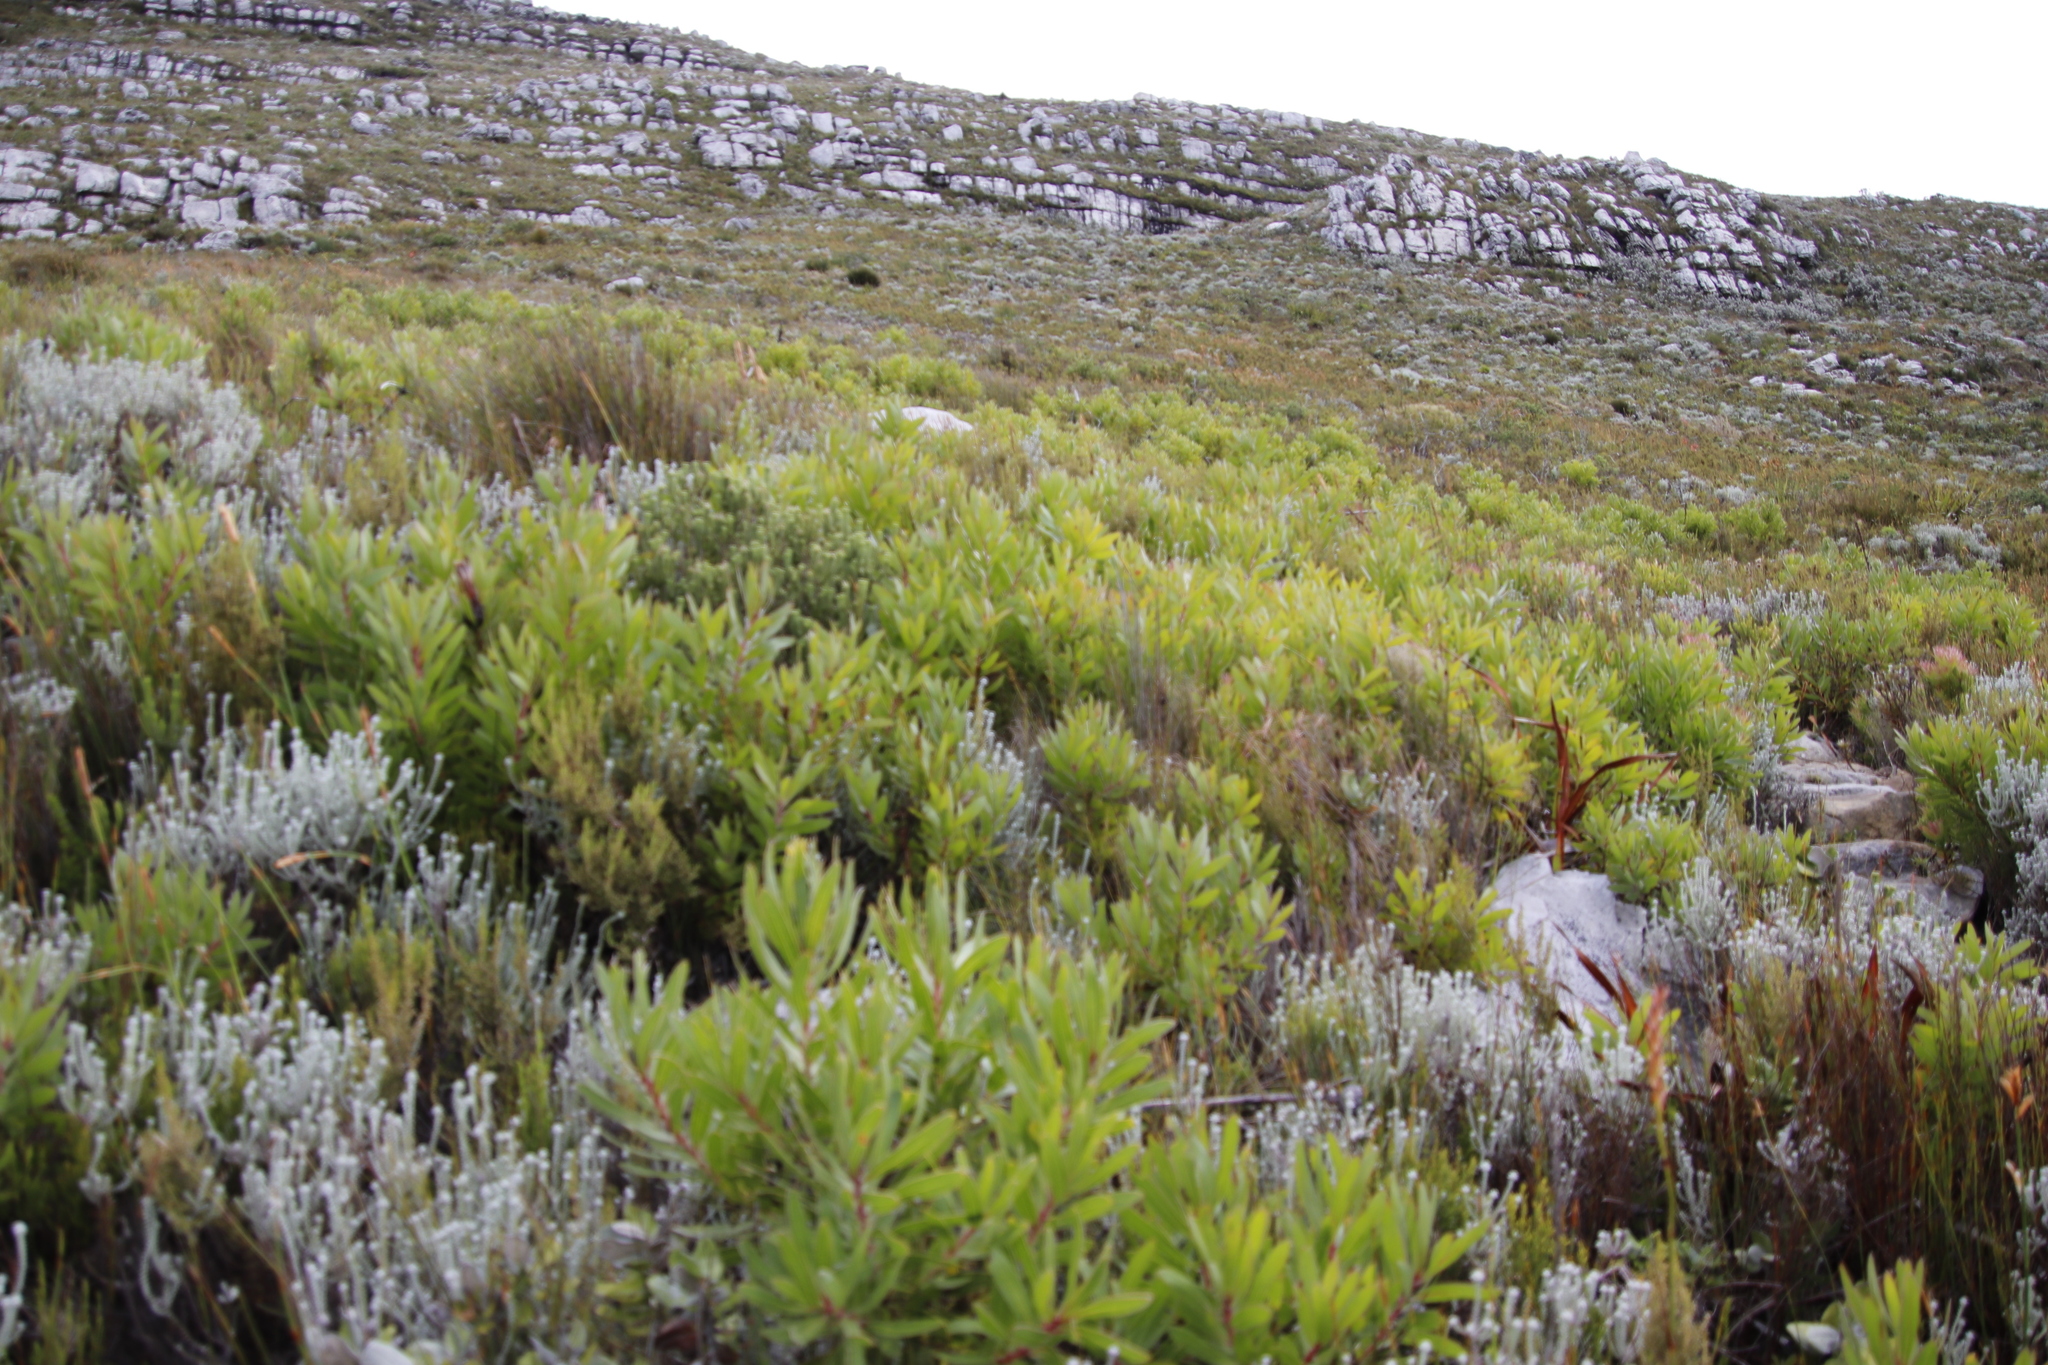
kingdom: Plantae
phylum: Tracheophyta
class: Magnoliopsida
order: Proteales
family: Proteaceae
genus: Protea
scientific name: Protea lepidocarpodendron
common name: Black-bearded protea
